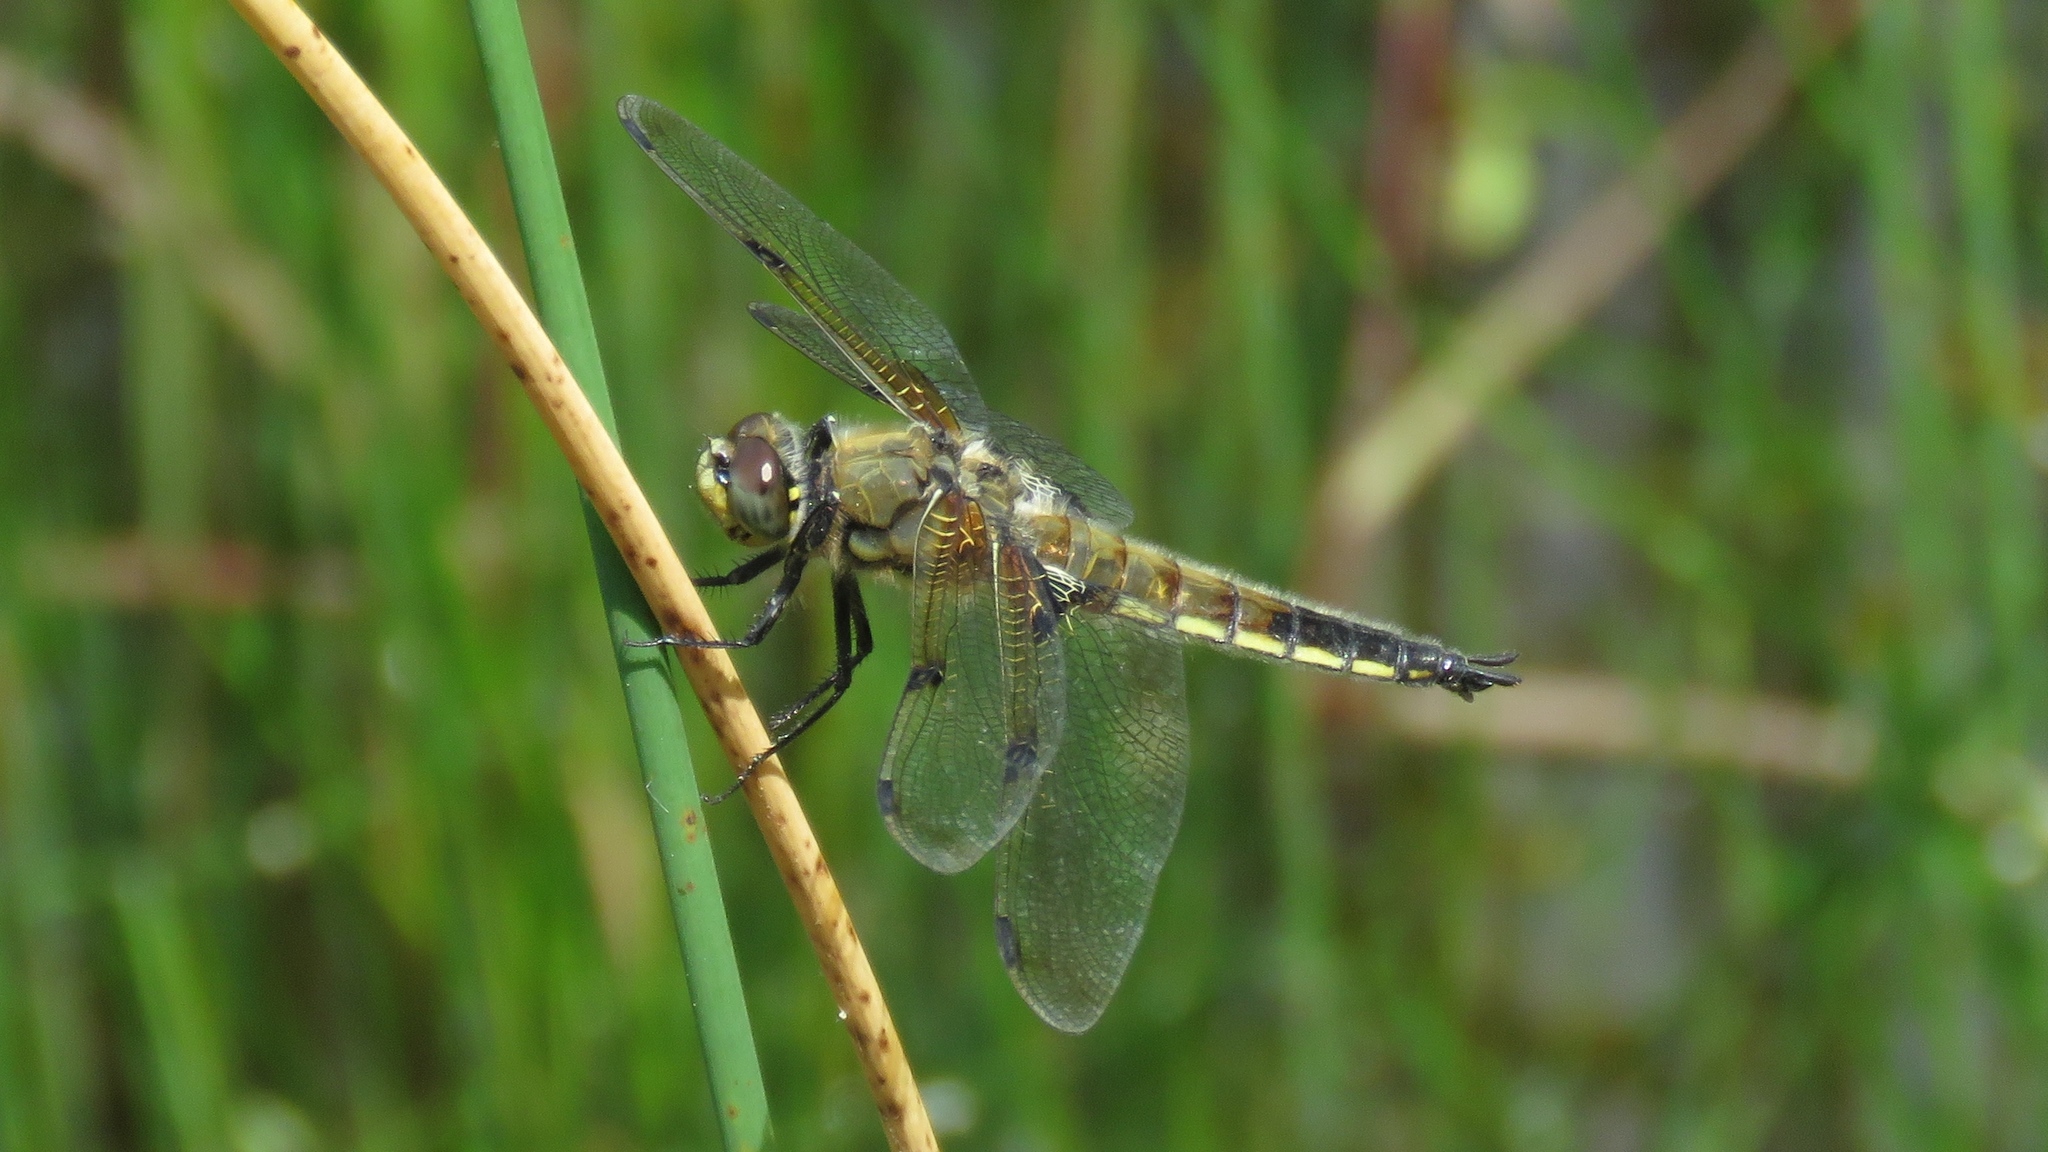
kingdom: Animalia
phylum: Arthropoda
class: Insecta
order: Odonata
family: Libellulidae
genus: Libellula
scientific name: Libellula quadrimaculata
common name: Four-spotted chaser
